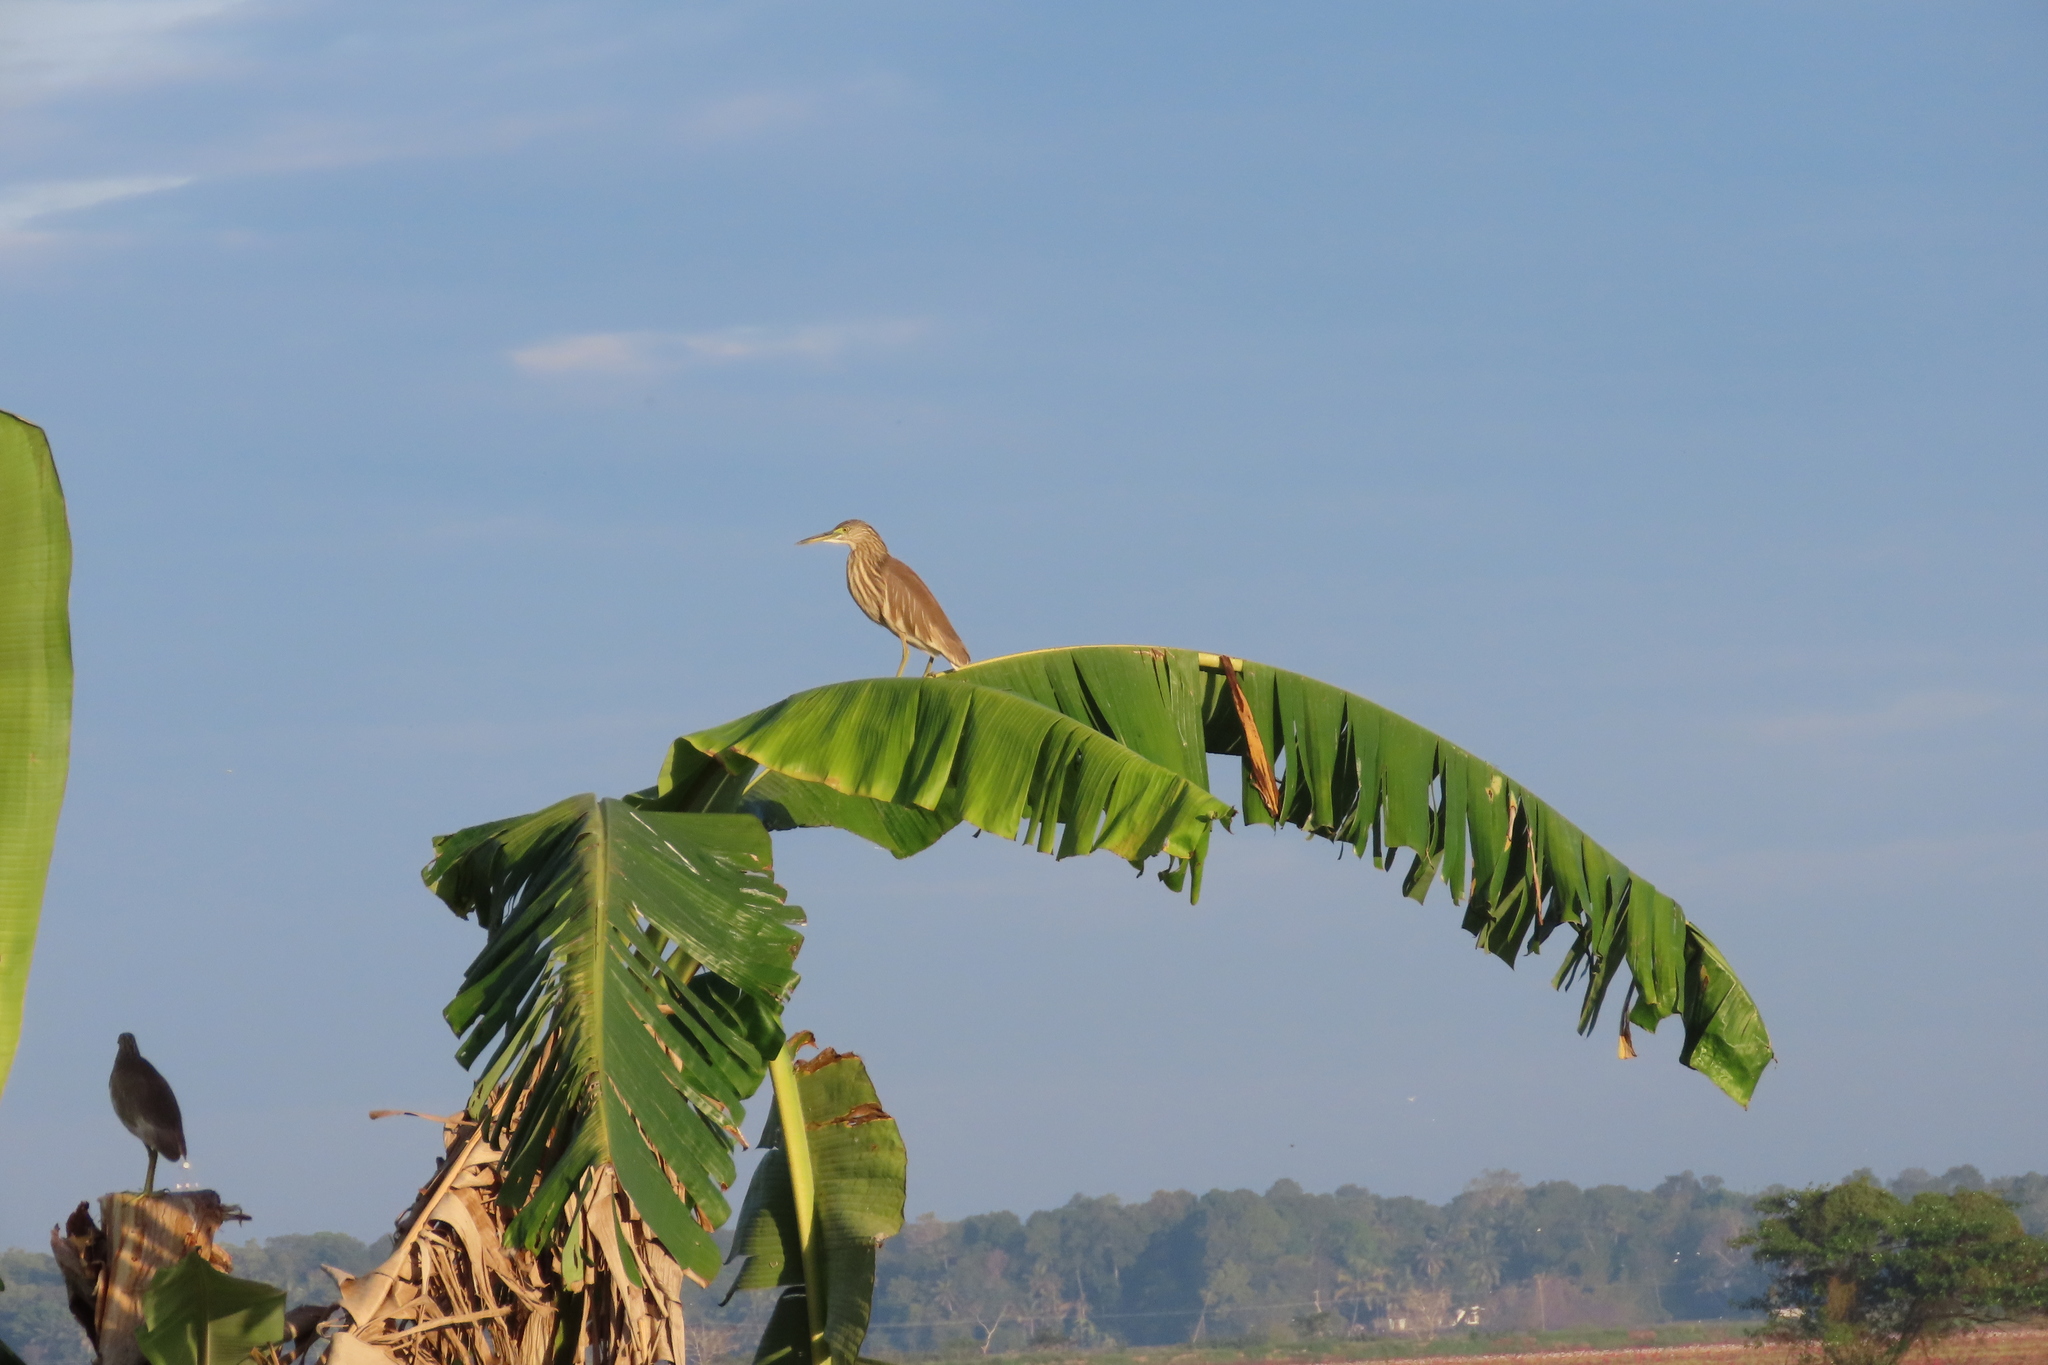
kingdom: Animalia
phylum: Chordata
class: Aves
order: Pelecaniformes
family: Ardeidae
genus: Ardeola
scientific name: Ardeola grayii
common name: Indian pond heron
